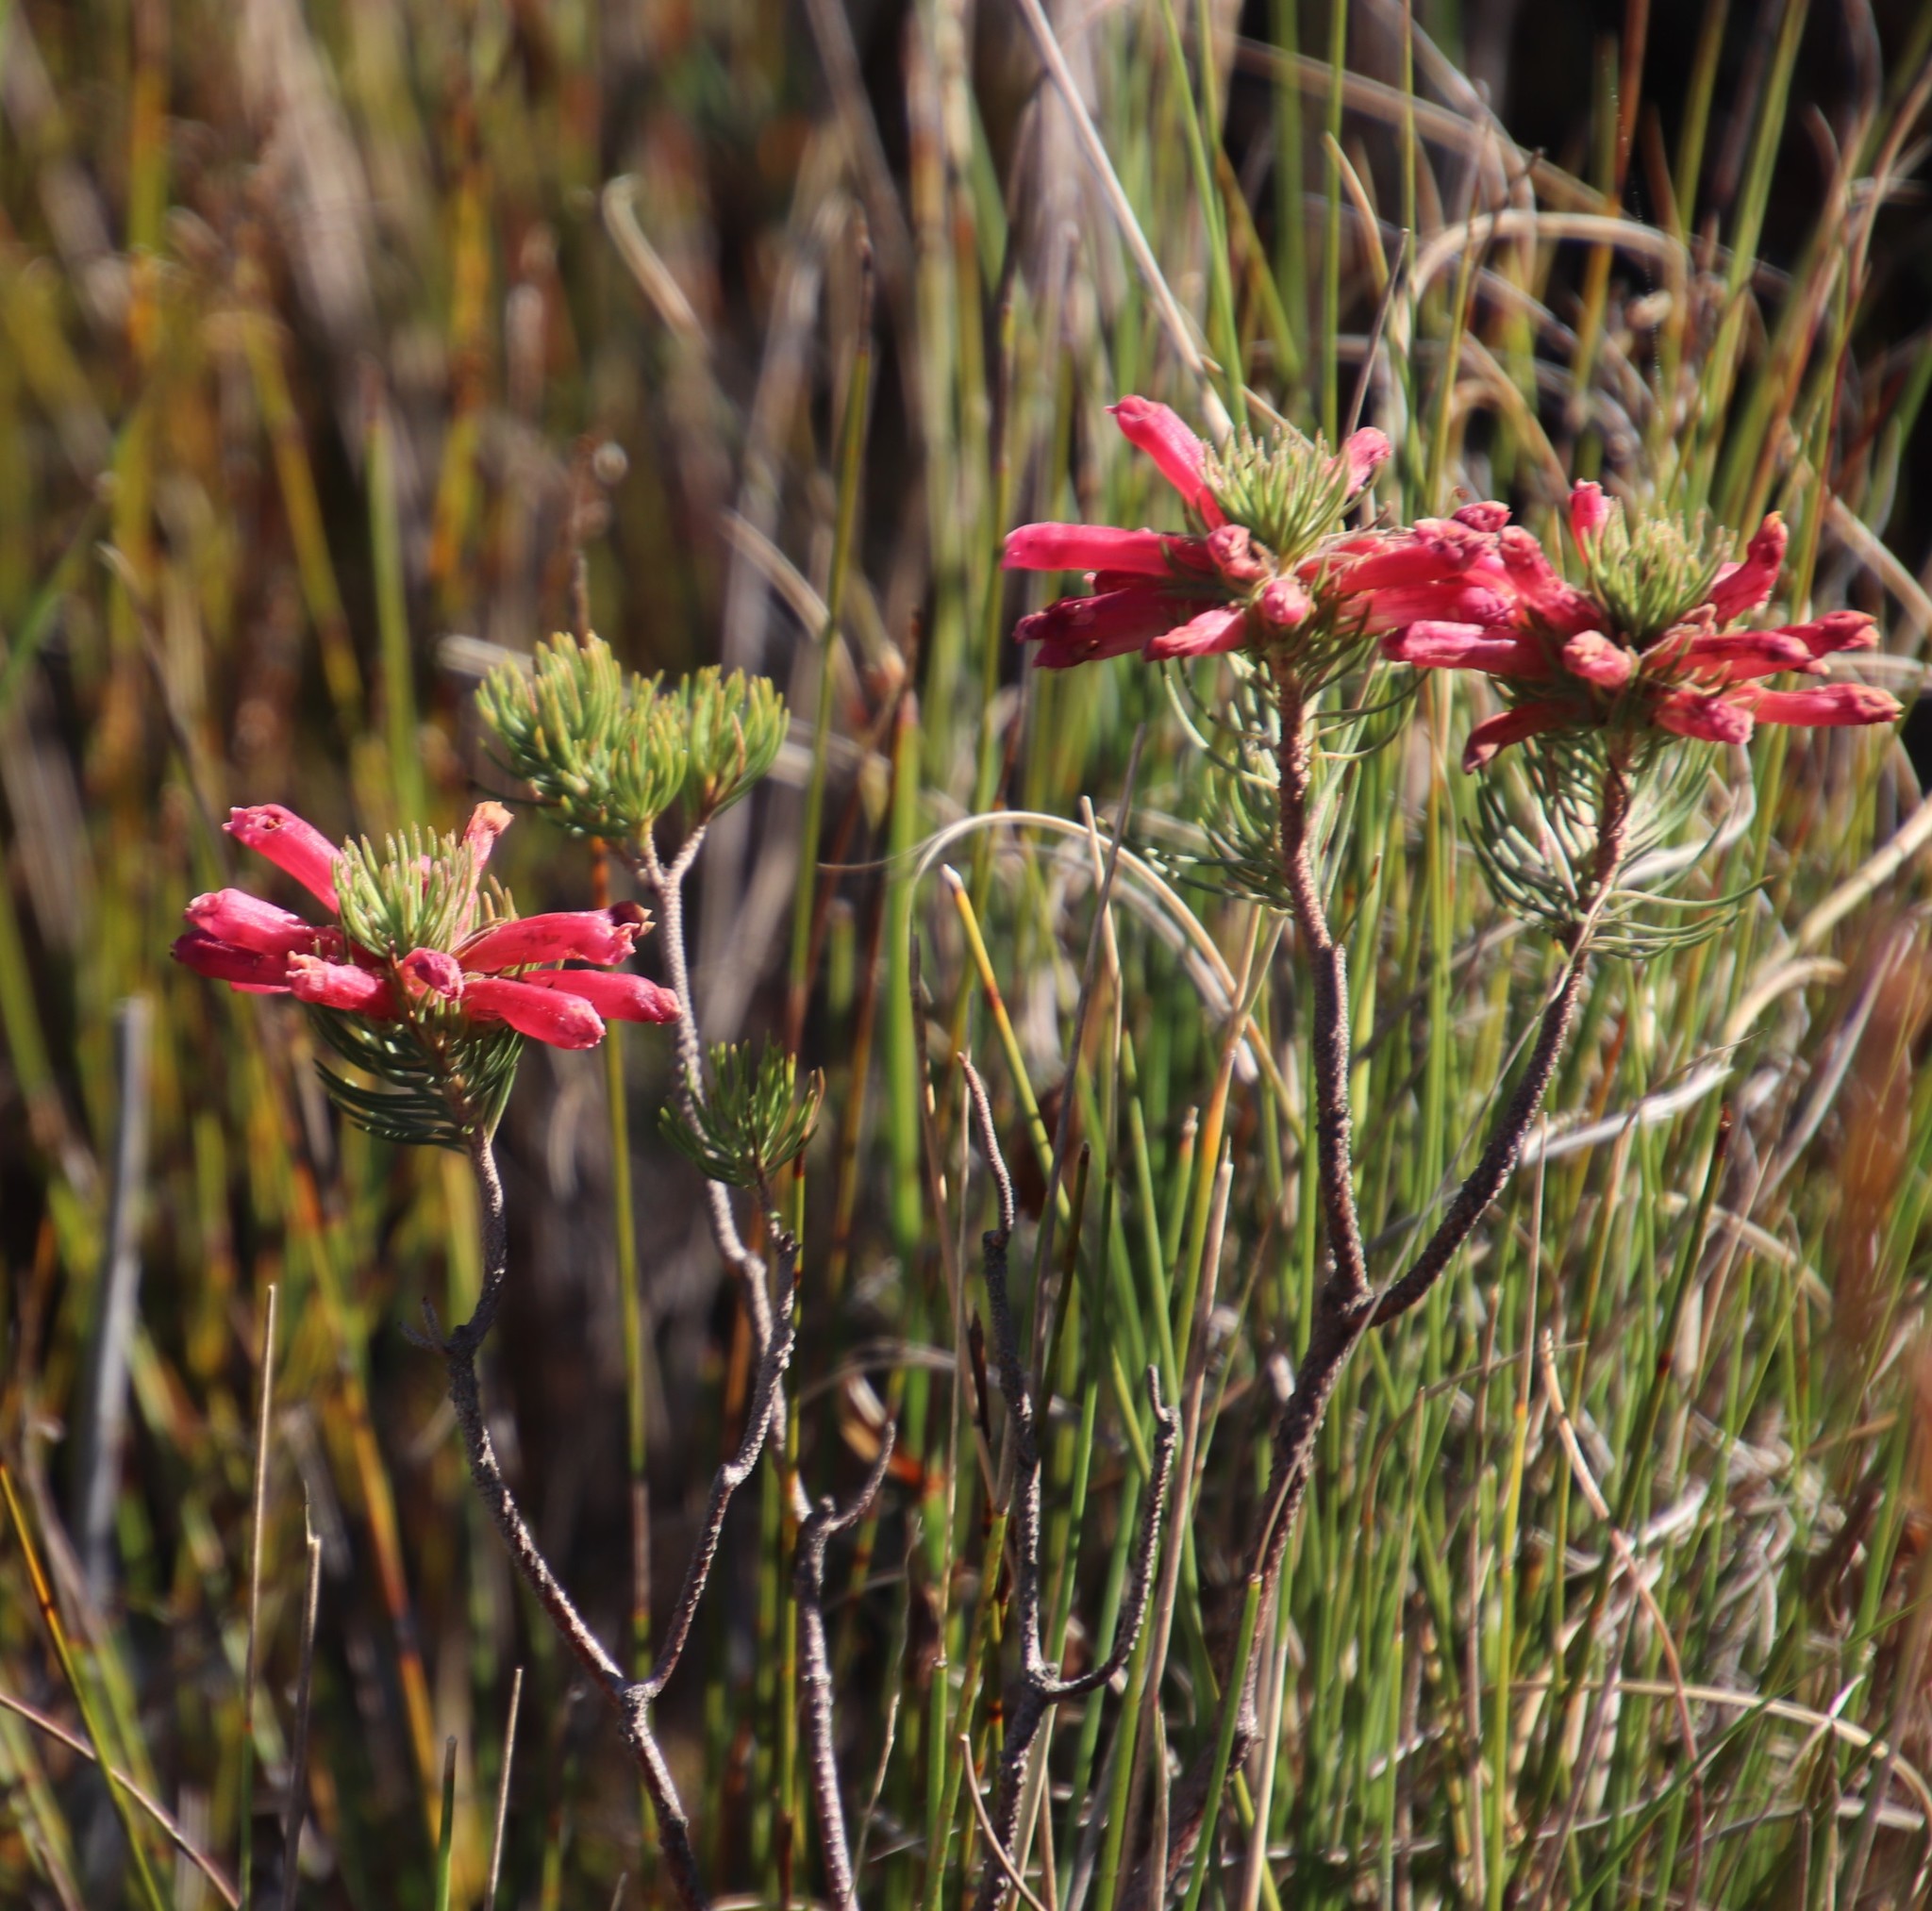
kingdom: Plantae
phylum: Tracheophyta
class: Magnoliopsida
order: Ericales
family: Ericaceae
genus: Erica
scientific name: Erica viscaria
